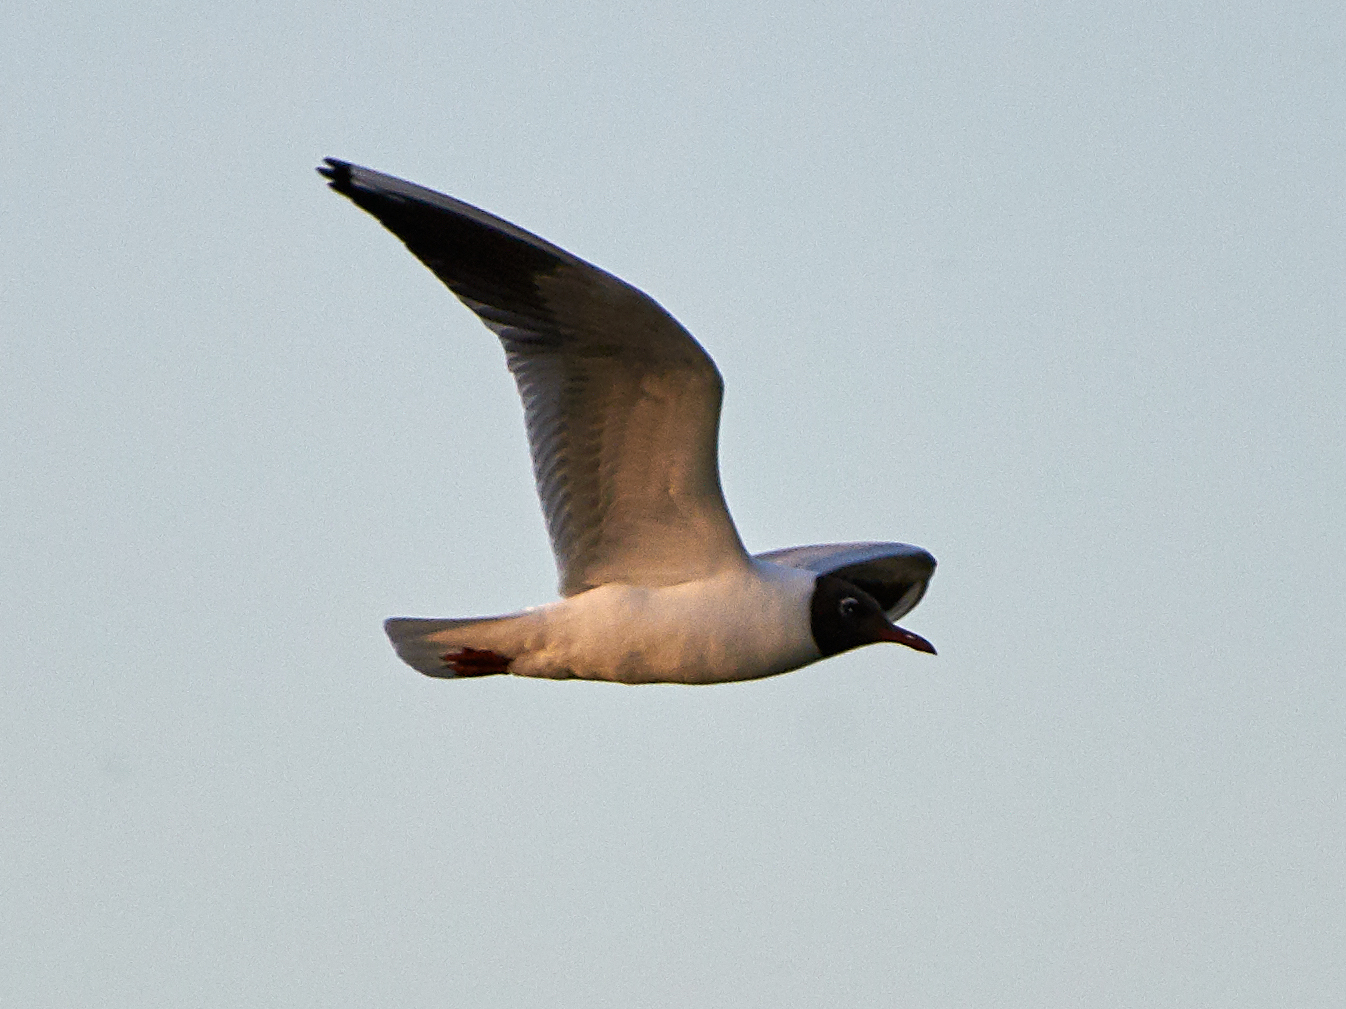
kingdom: Animalia
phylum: Chordata
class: Aves
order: Charadriiformes
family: Laridae
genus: Chroicocephalus
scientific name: Chroicocephalus ridibundus
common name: Black-headed gull
